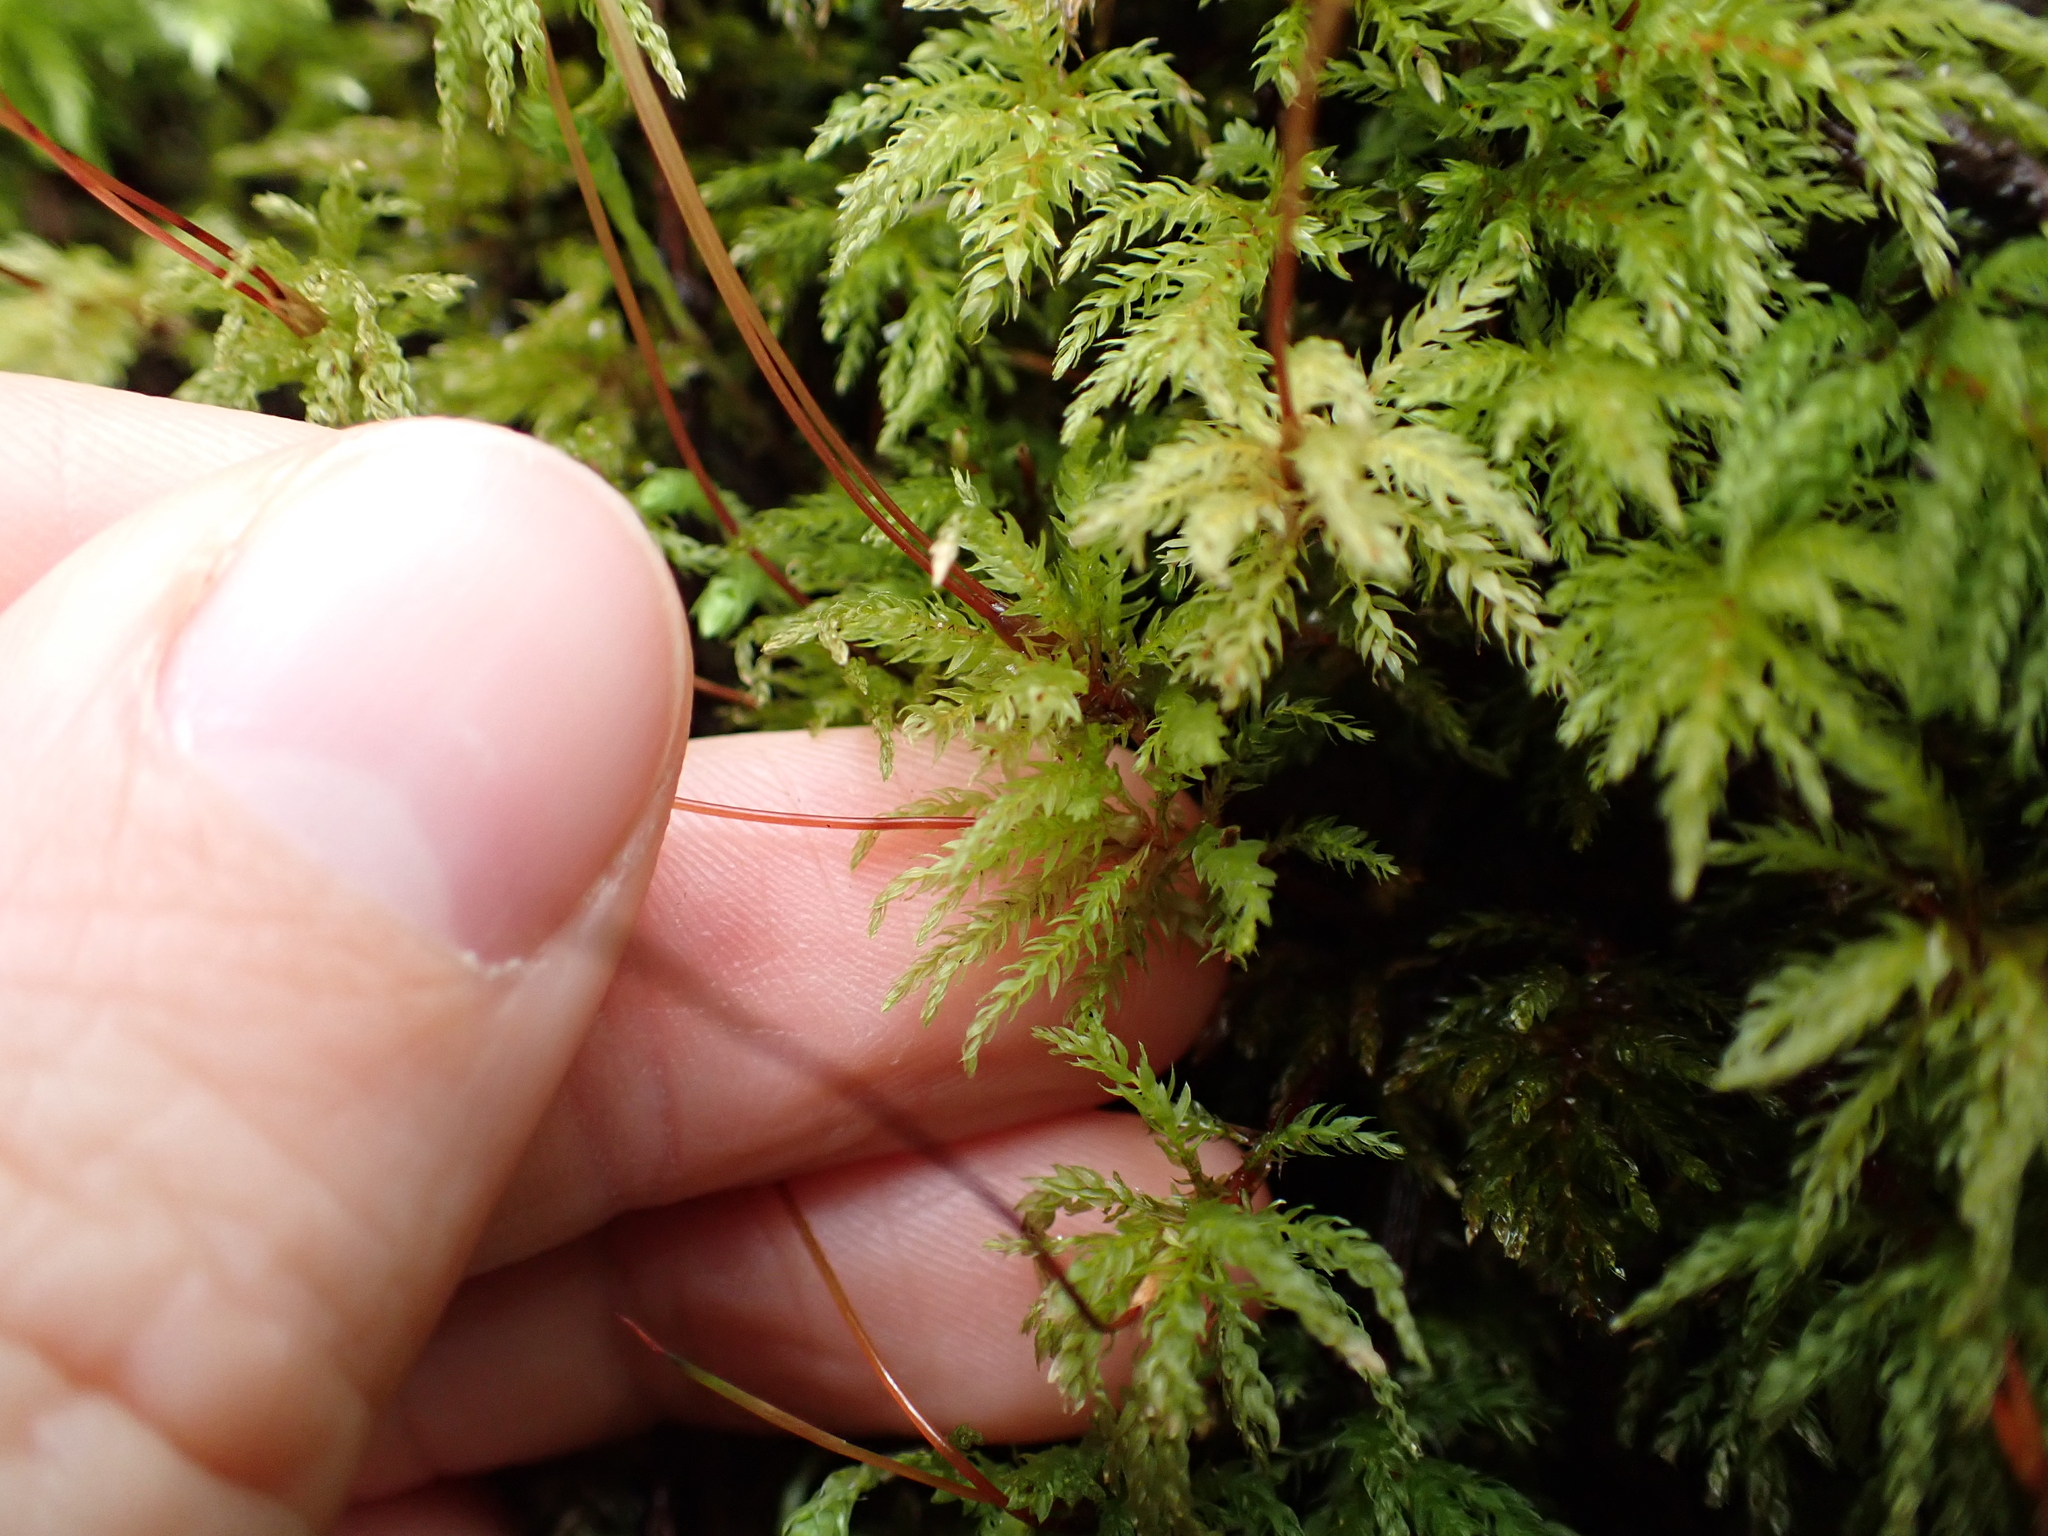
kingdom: Plantae
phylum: Bryophyta
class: Bryopsida
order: Bryales
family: Mniaceae
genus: Leucolepis
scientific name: Leucolepis acanthoneura
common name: Leucolepis umbrella moss
